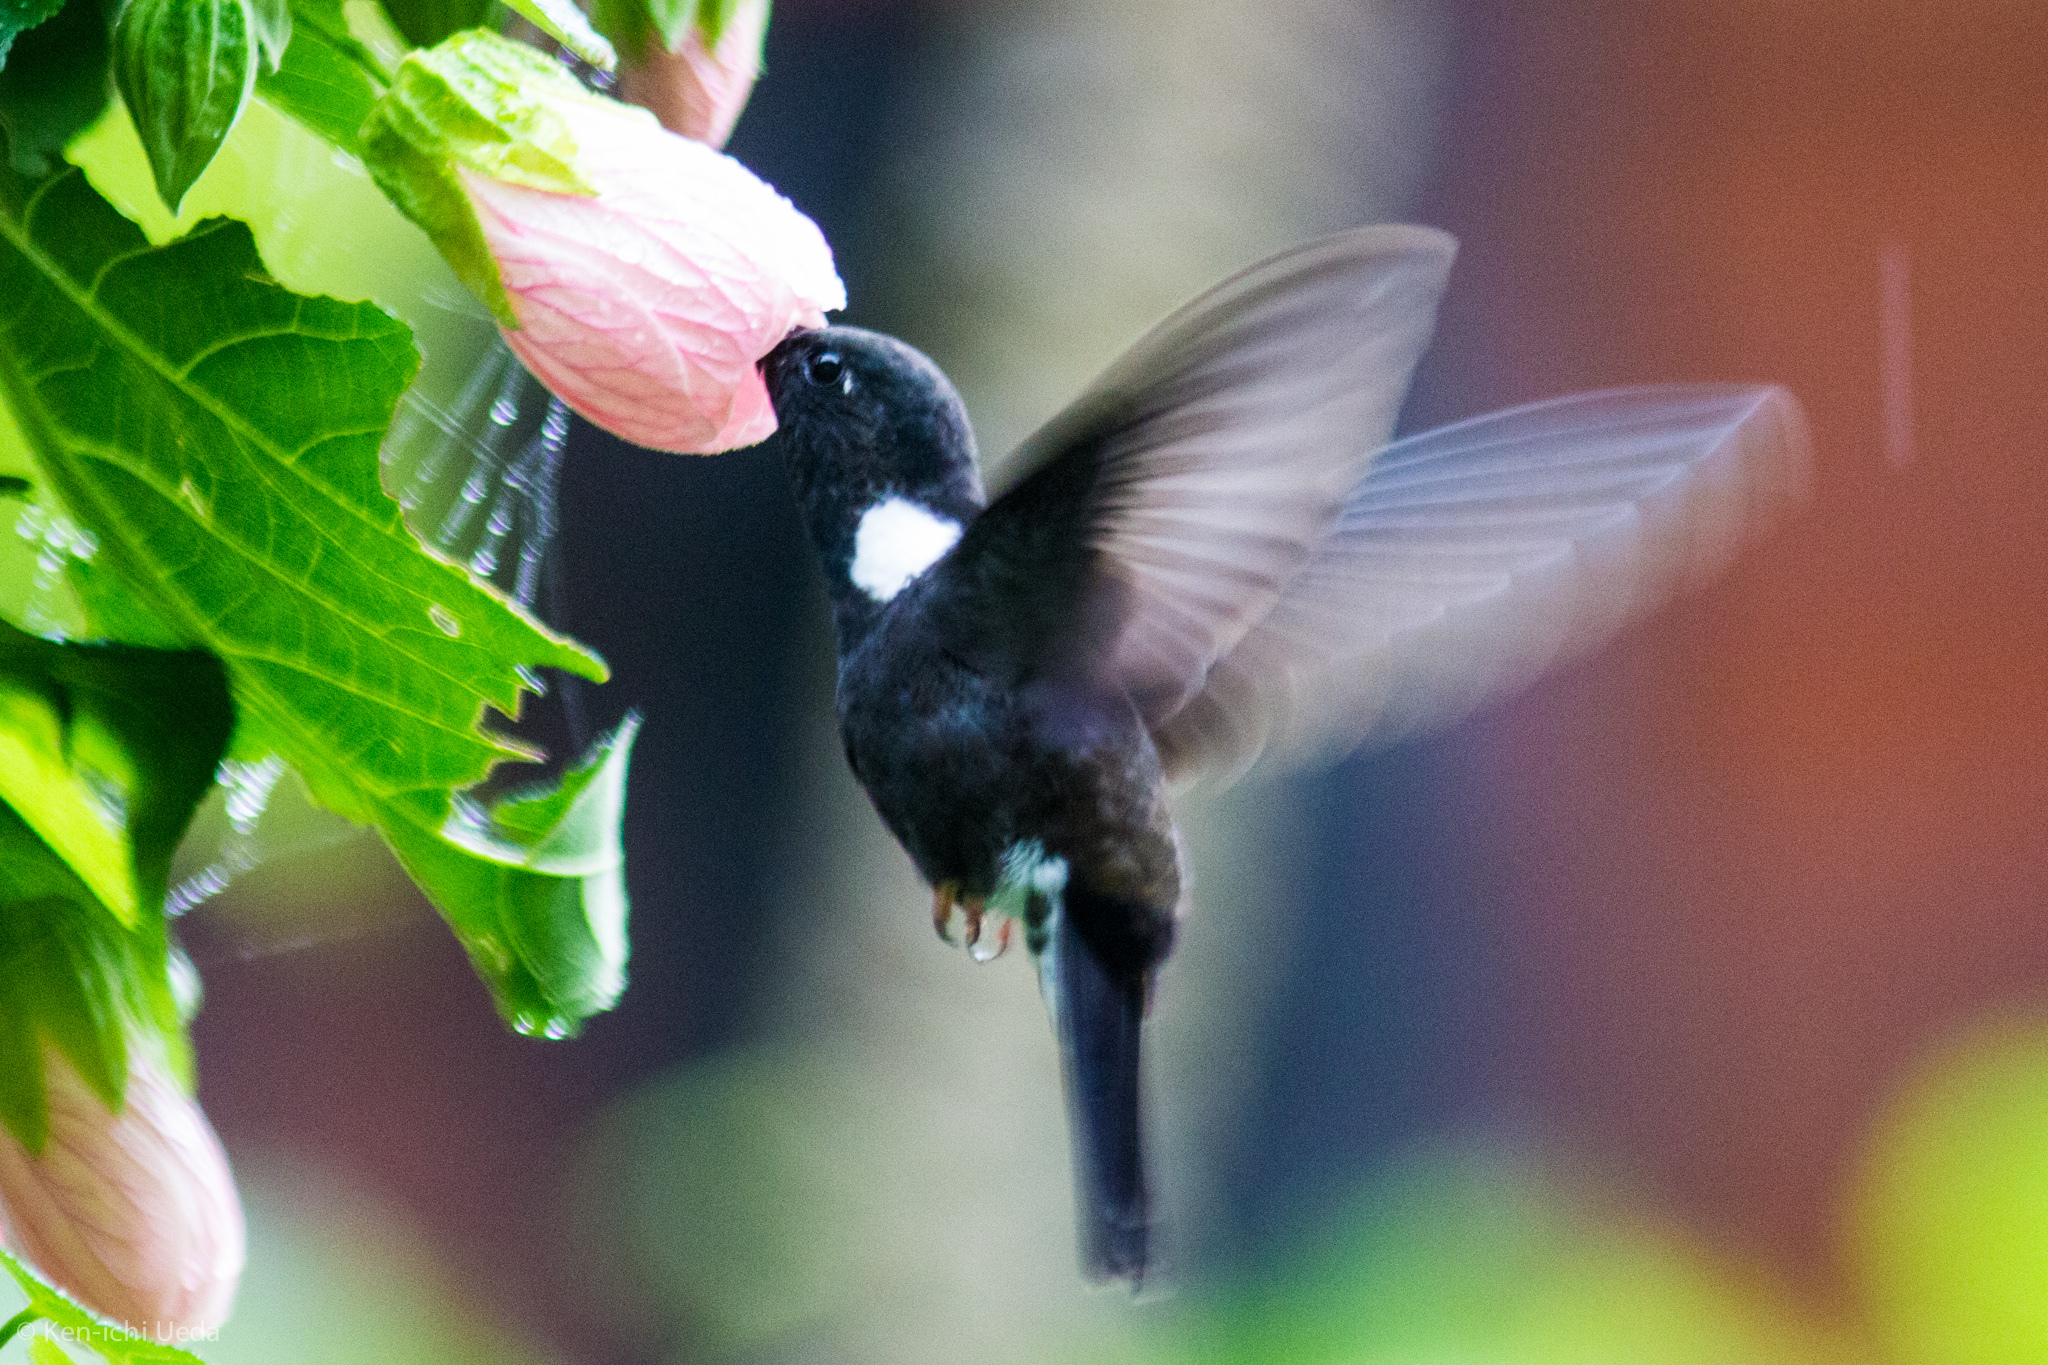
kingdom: Animalia
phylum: Chordata
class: Aves
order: Apodiformes
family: Trochilidae
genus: Coeligena
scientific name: Coeligena prunellei
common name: Black inca
